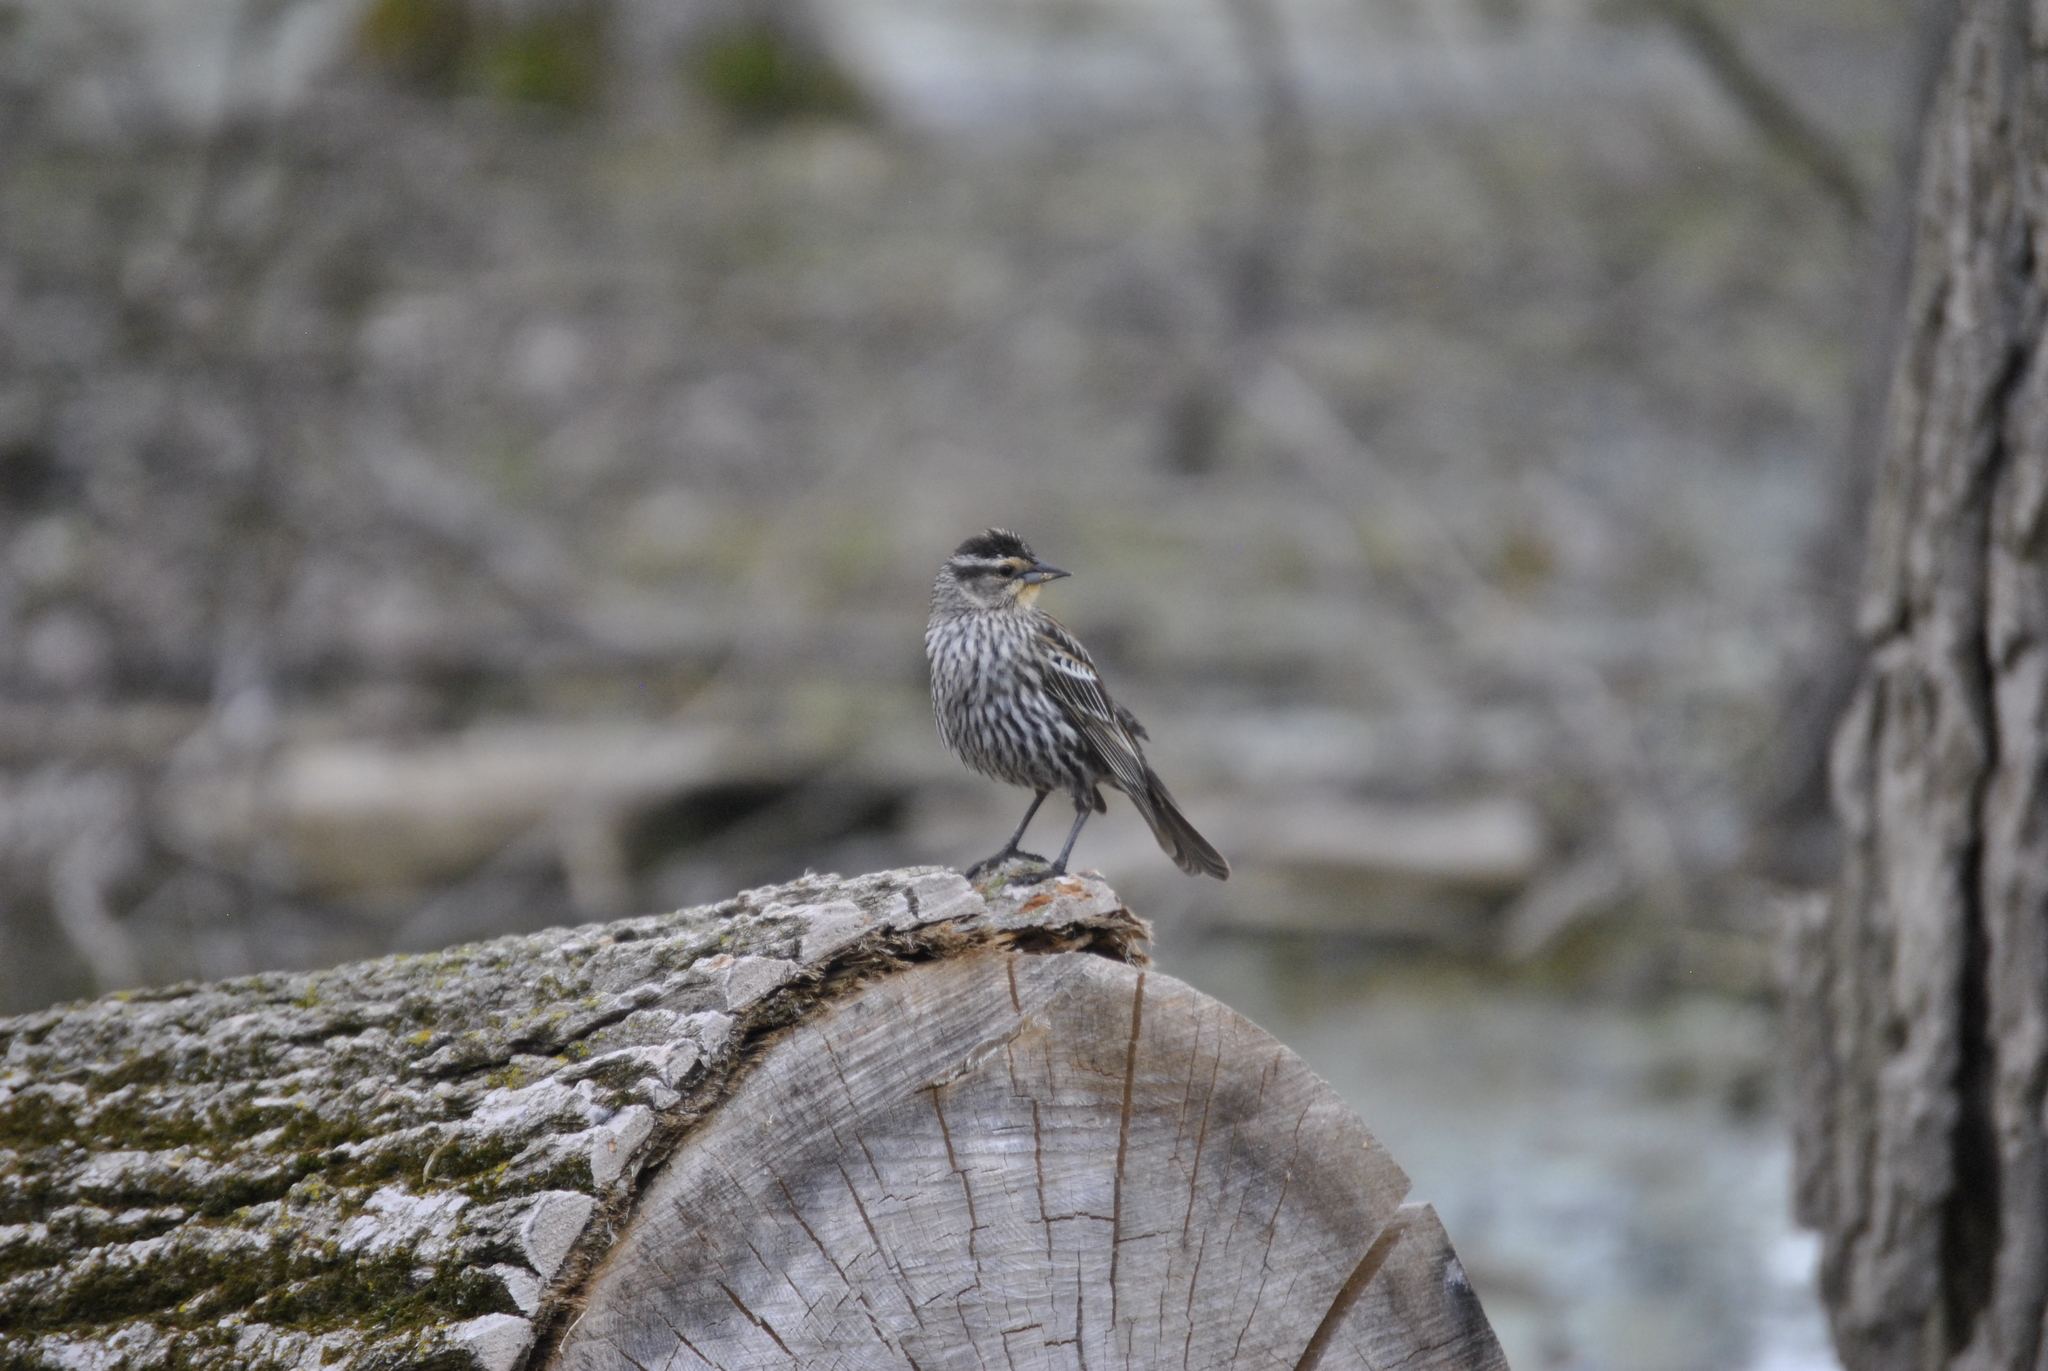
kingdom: Animalia
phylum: Chordata
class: Aves
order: Passeriformes
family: Icteridae
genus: Agelaius
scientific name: Agelaius phoeniceus
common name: Red-winged blackbird
